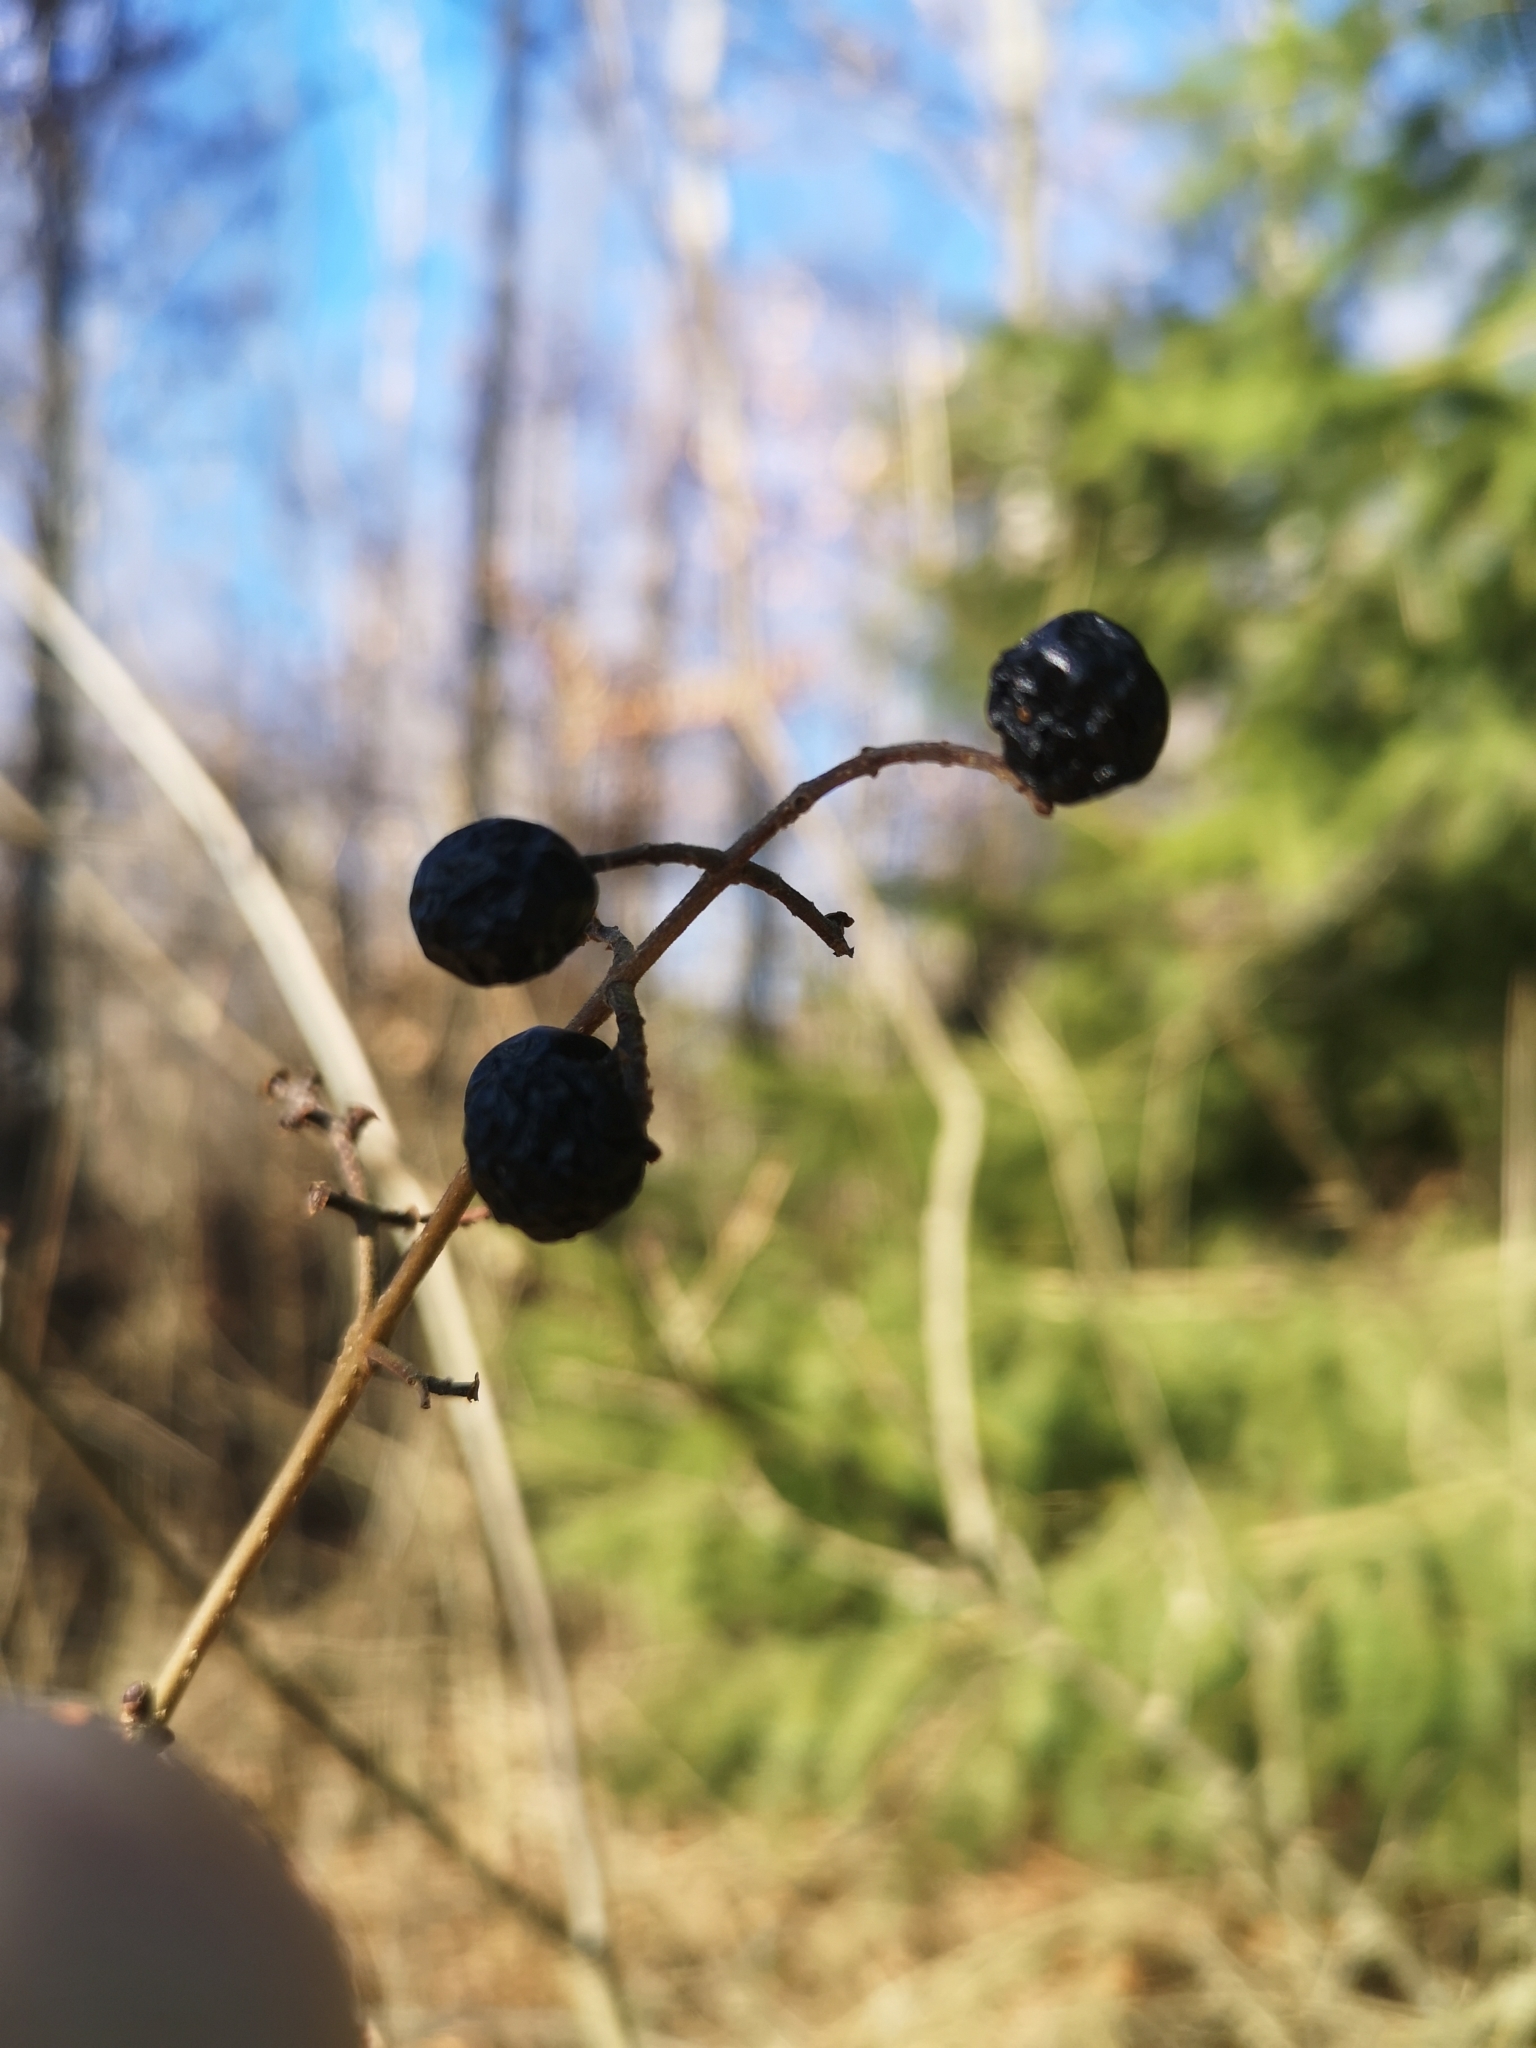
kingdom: Plantae
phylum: Tracheophyta
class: Magnoliopsida
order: Lamiales
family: Oleaceae
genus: Ligustrum
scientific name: Ligustrum vulgare
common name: Wild privet
